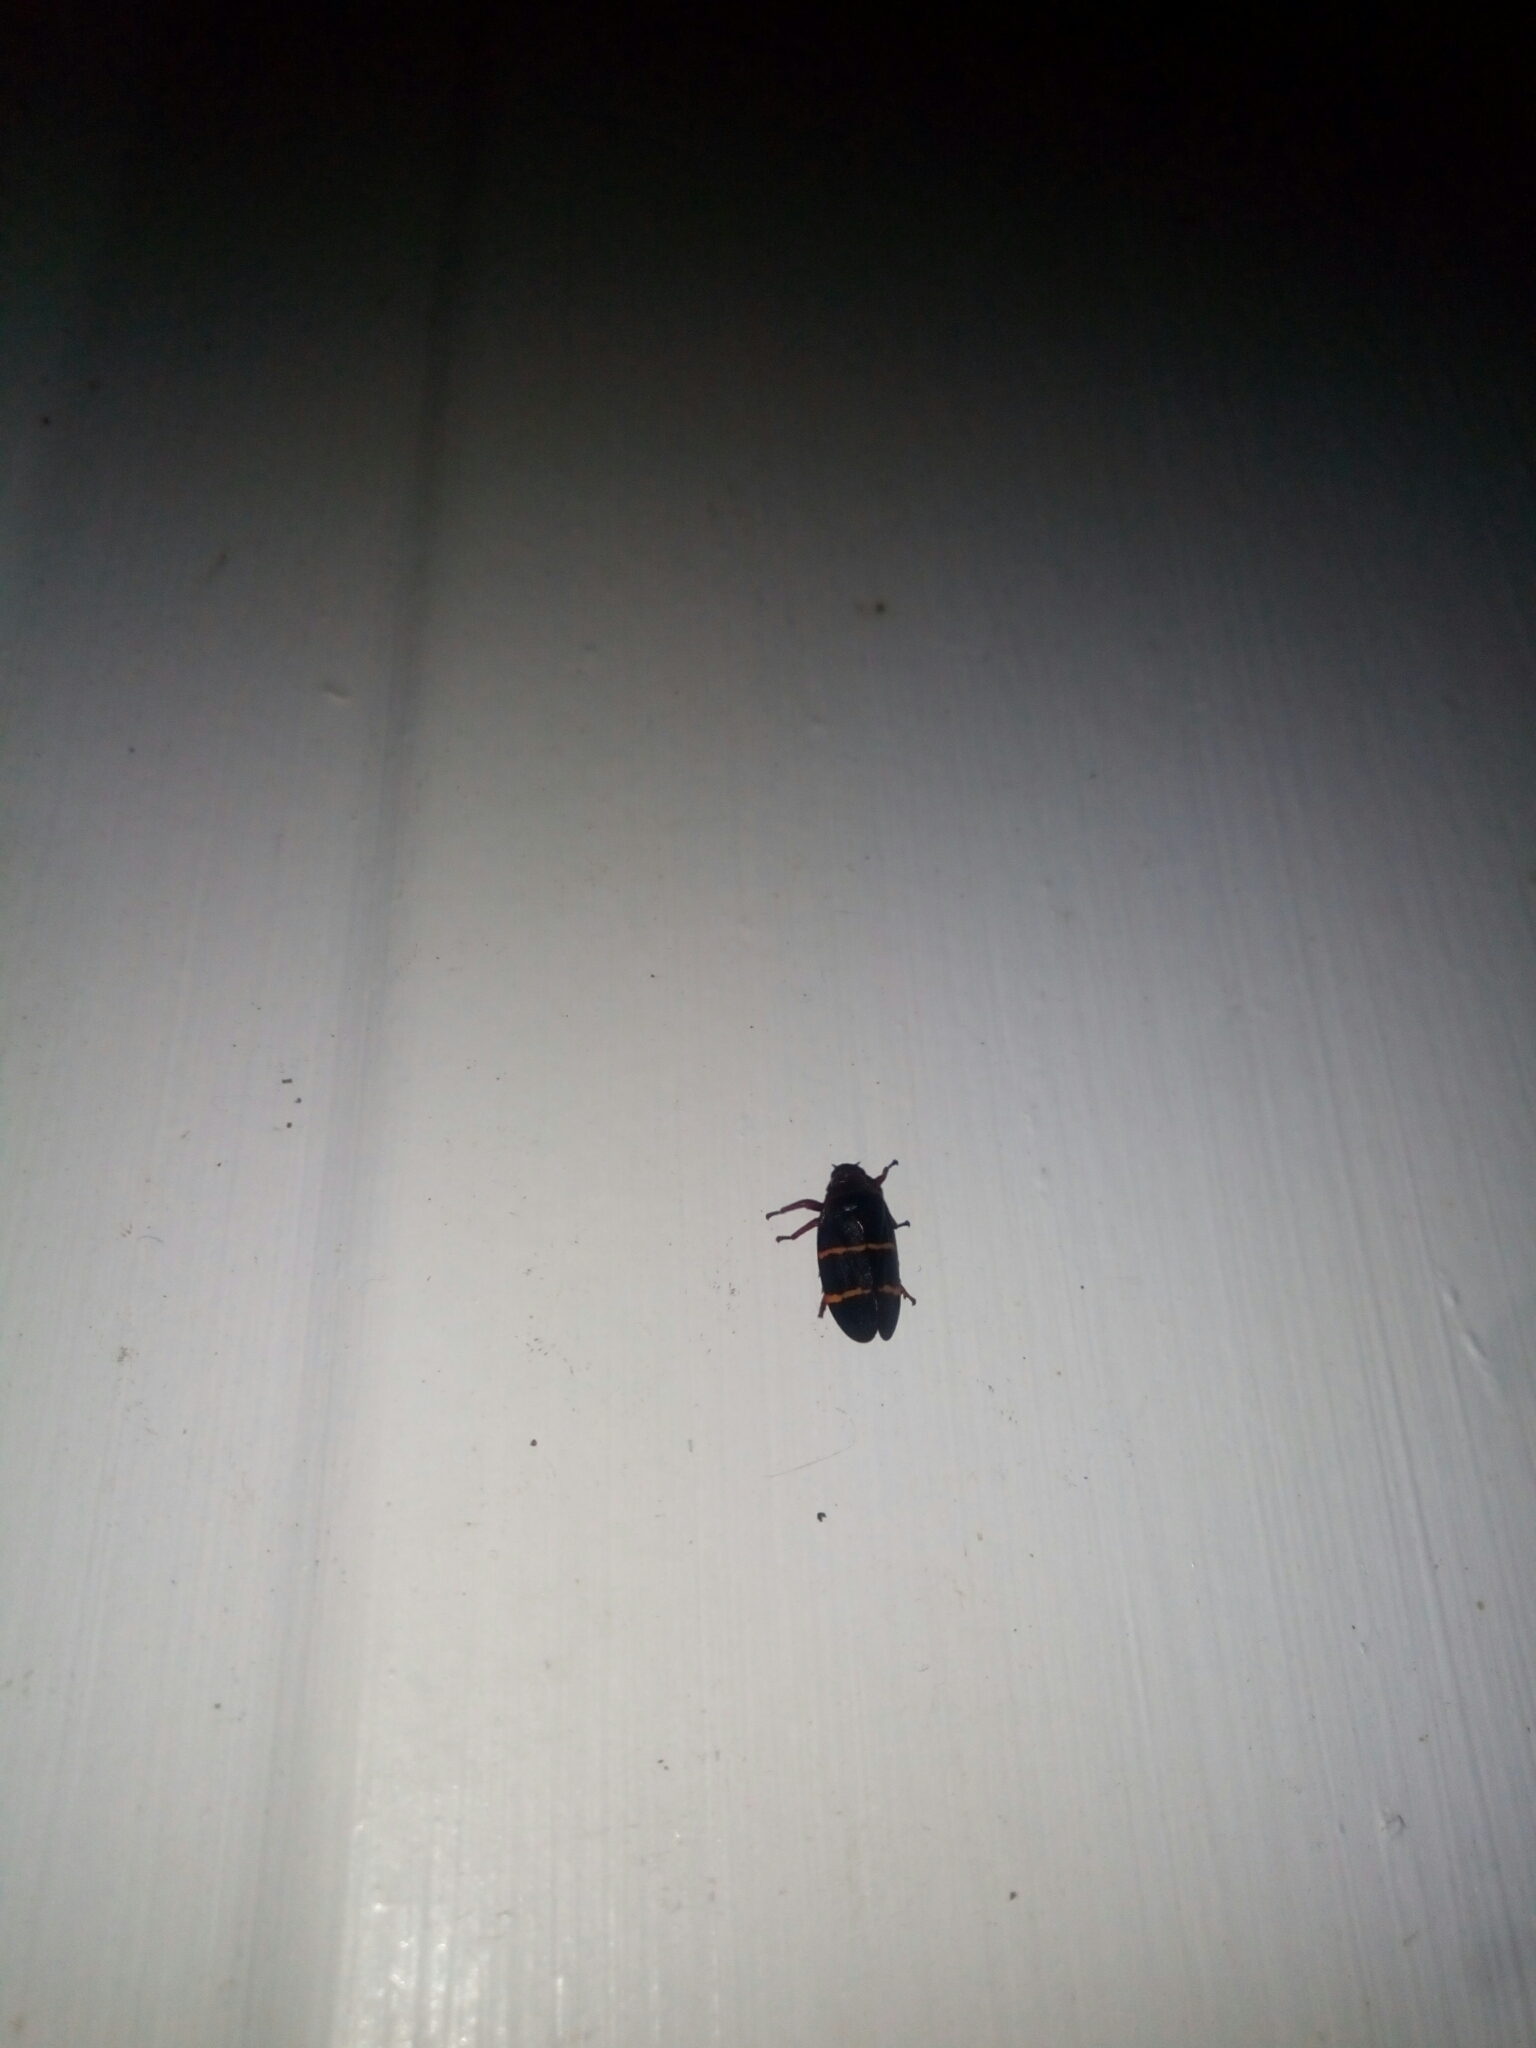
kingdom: Animalia
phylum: Arthropoda
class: Insecta
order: Hemiptera
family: Cercopidae
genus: Prosapia
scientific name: Prosapia bicincta
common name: Twolined spittlebug
